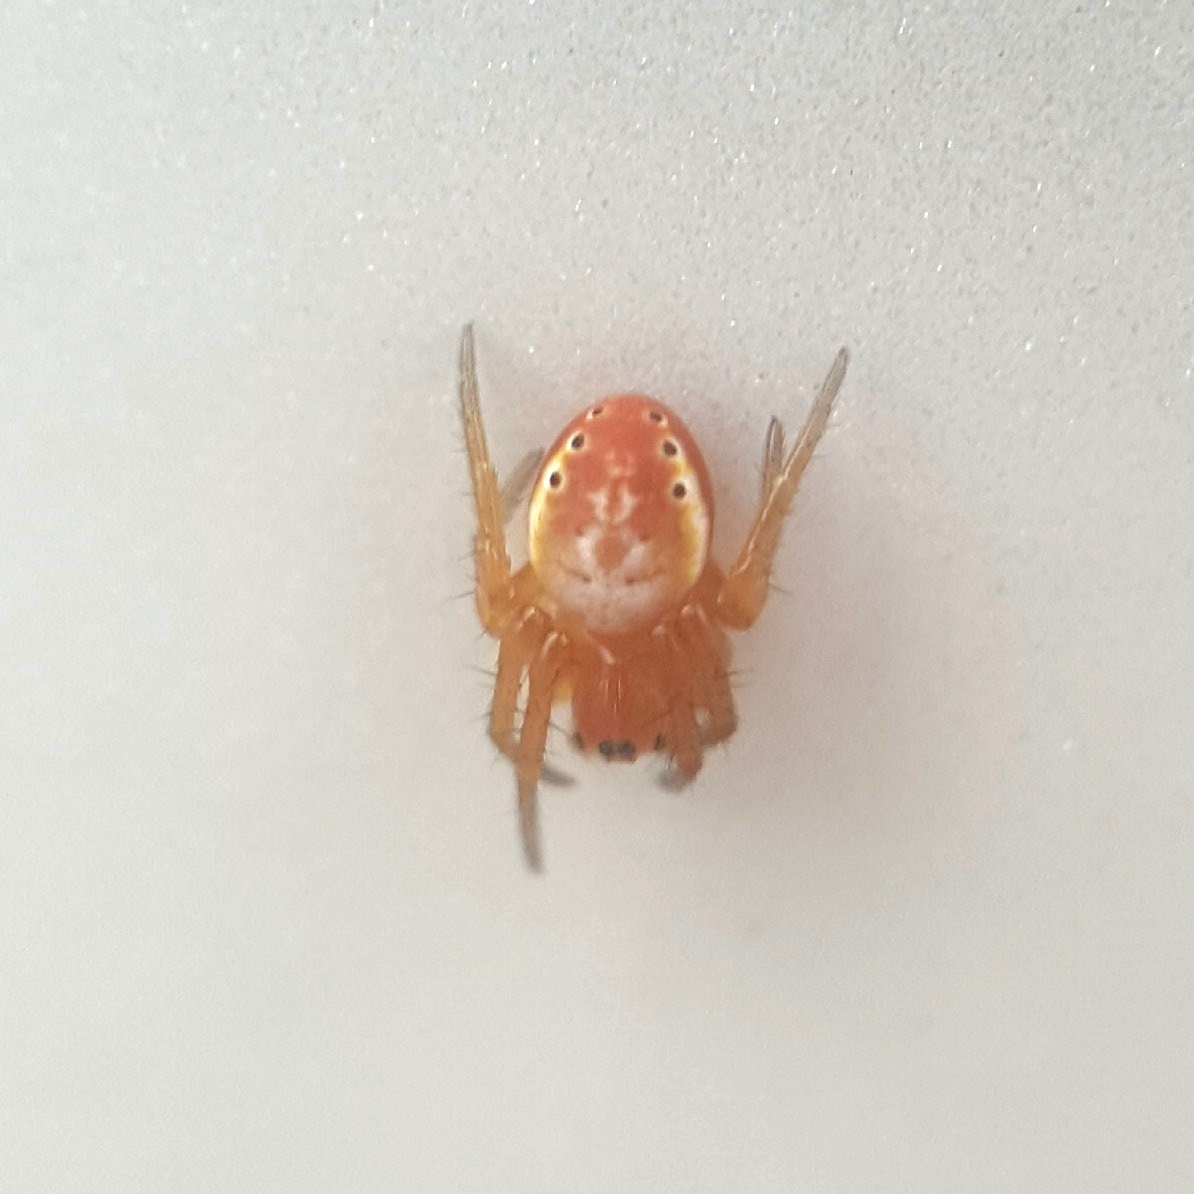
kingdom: Animalia
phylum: Arthropoda
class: Arachnida
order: Araneae
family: Araneidae
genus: Araniella
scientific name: Araniella displicata
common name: Sixspotted orb weaver
